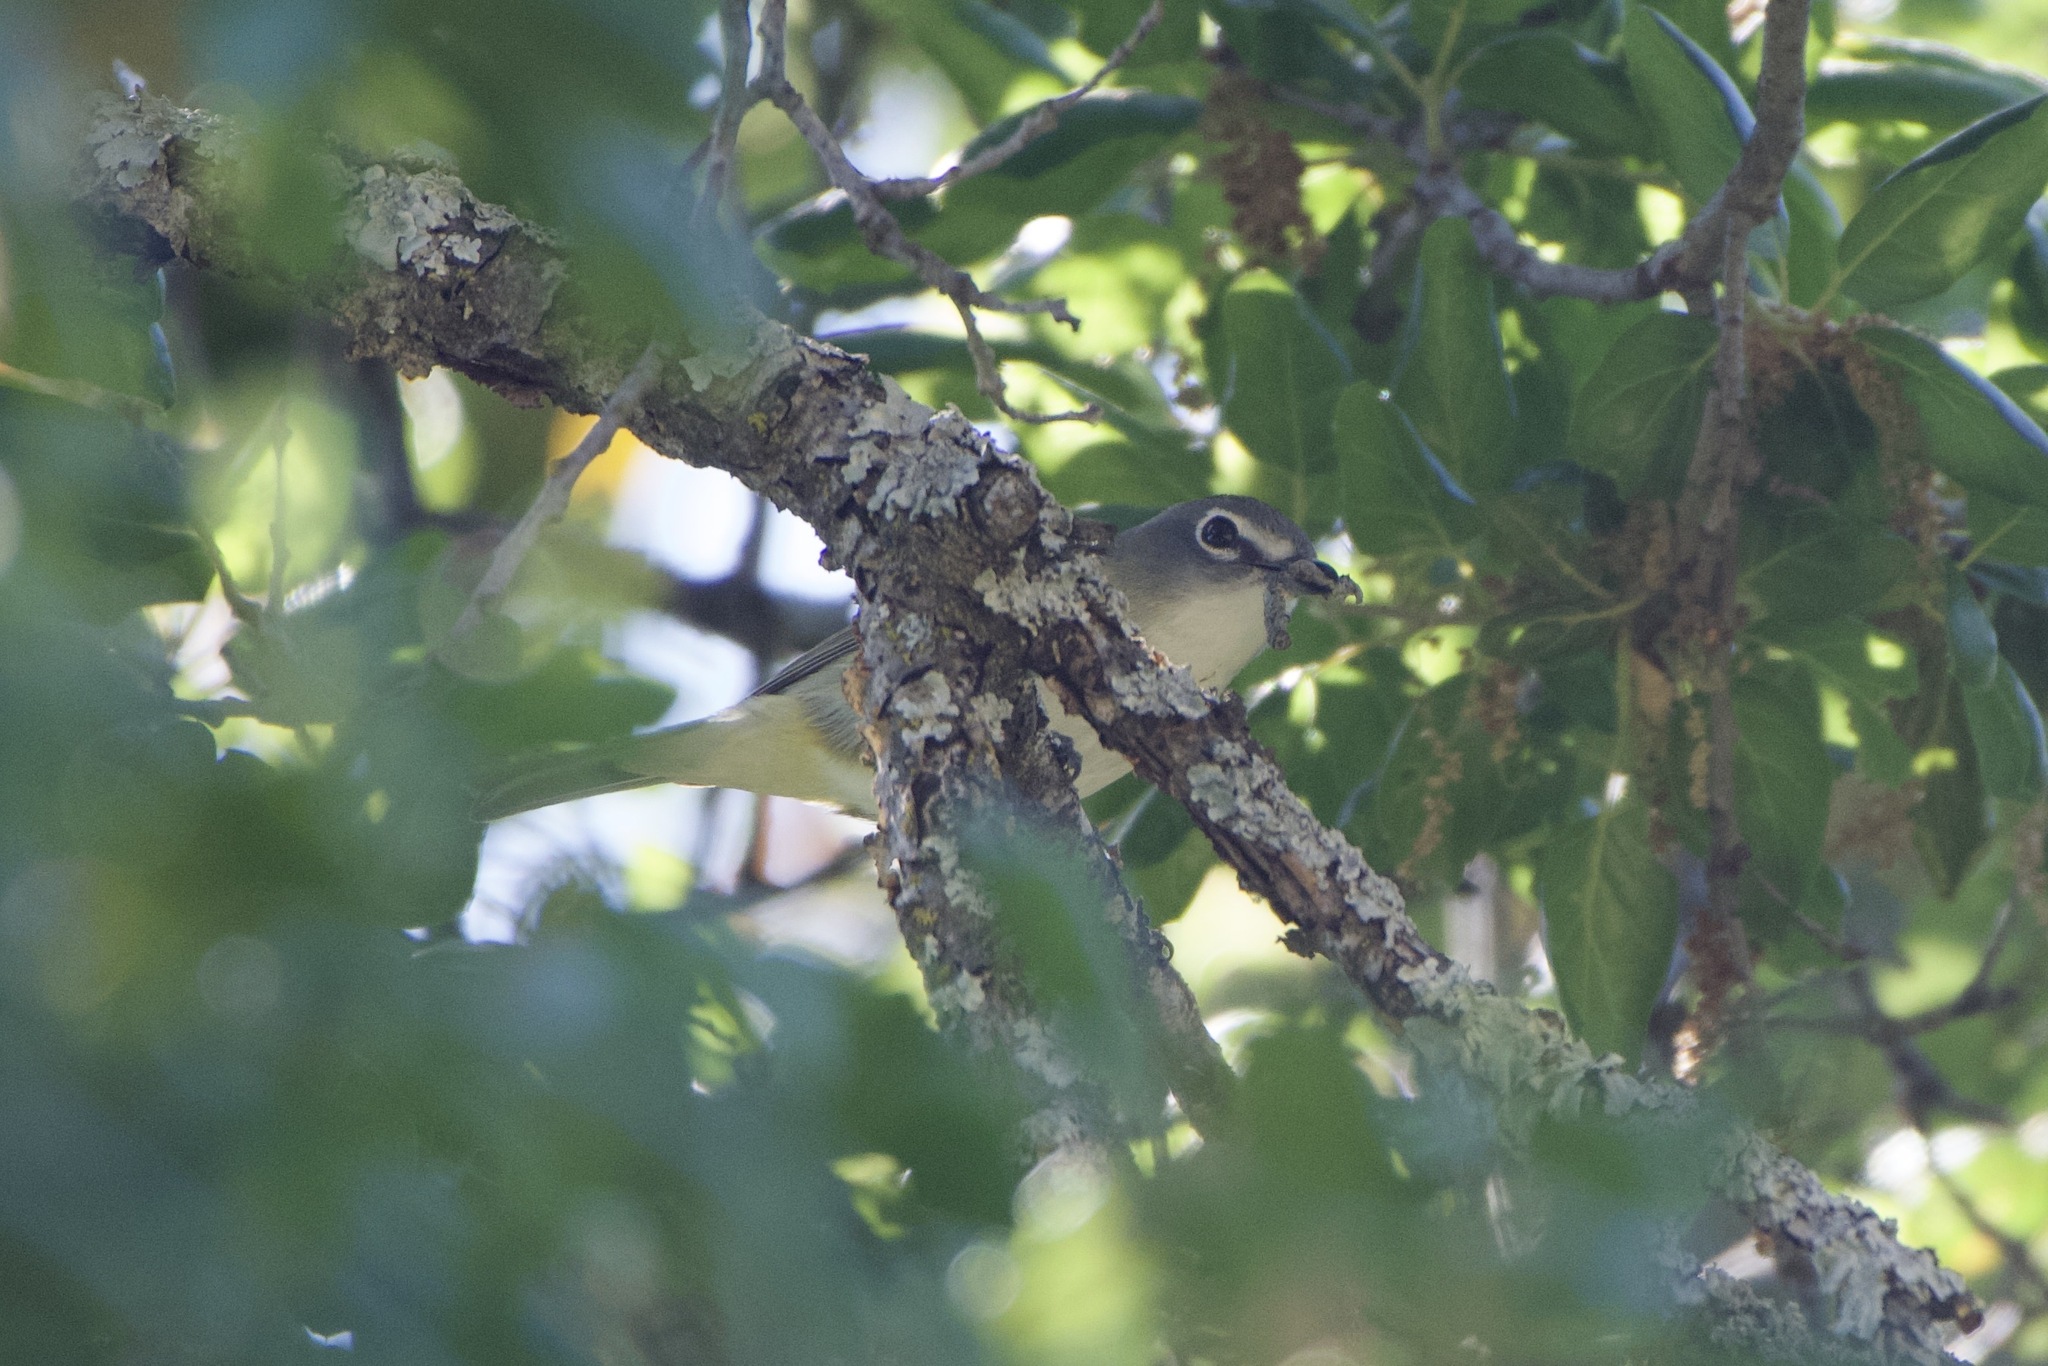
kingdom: Animalia
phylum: Chordata
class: Aves
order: Passeriformes
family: Vireonidae
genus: Vireo
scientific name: Vireo cassinii
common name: Cassin's vireo
